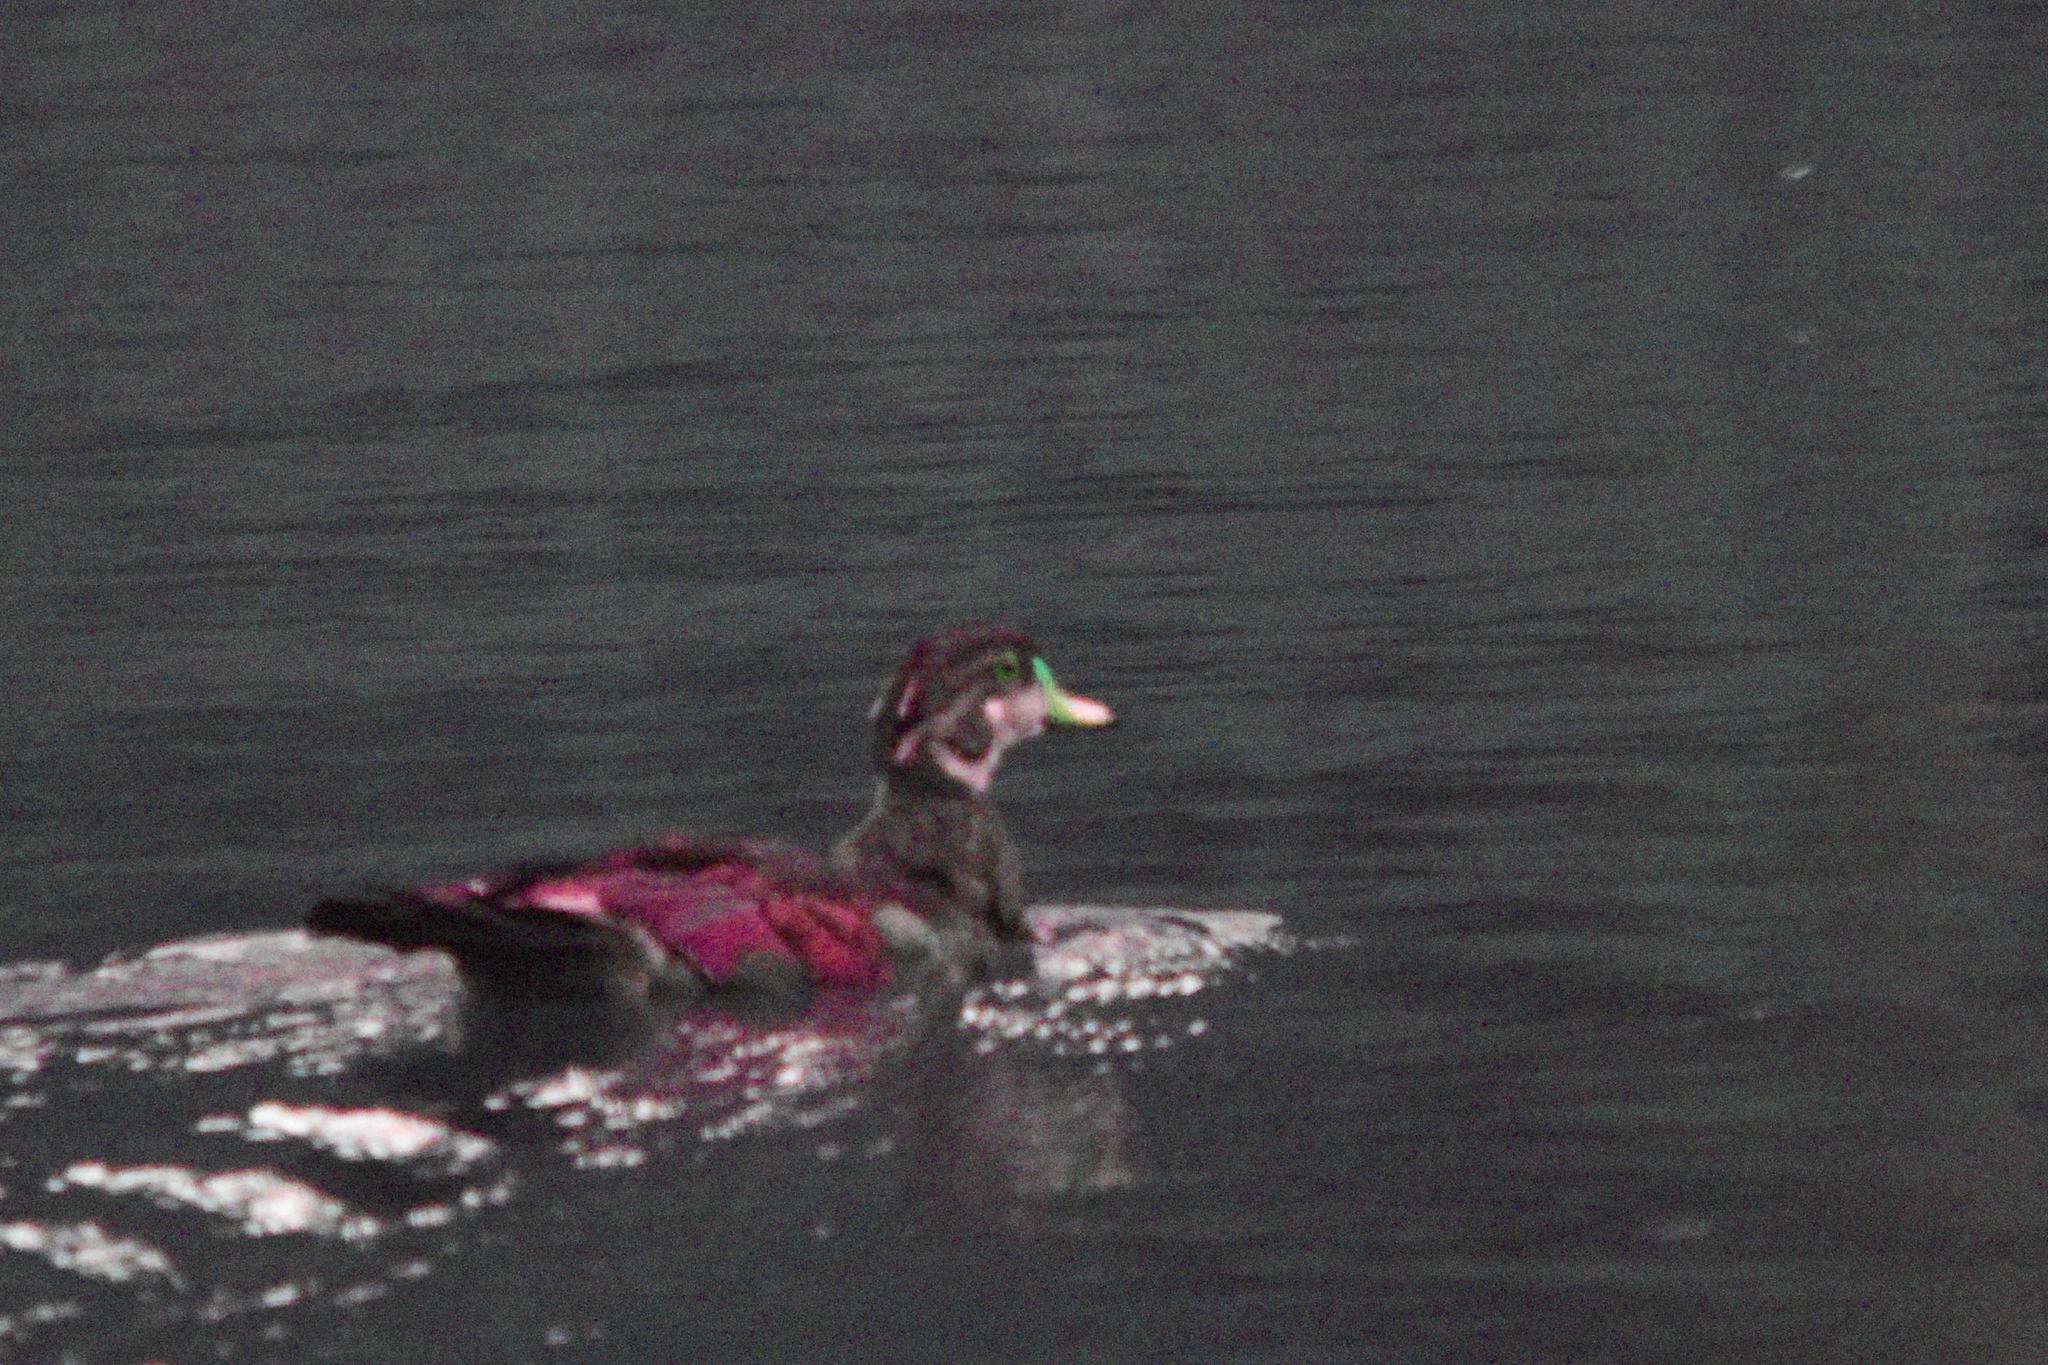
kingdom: Animalia
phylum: Chordata
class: Aves
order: Anseriformes
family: Anatidae
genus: Aix
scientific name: Aix sponsa
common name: Wood duck
